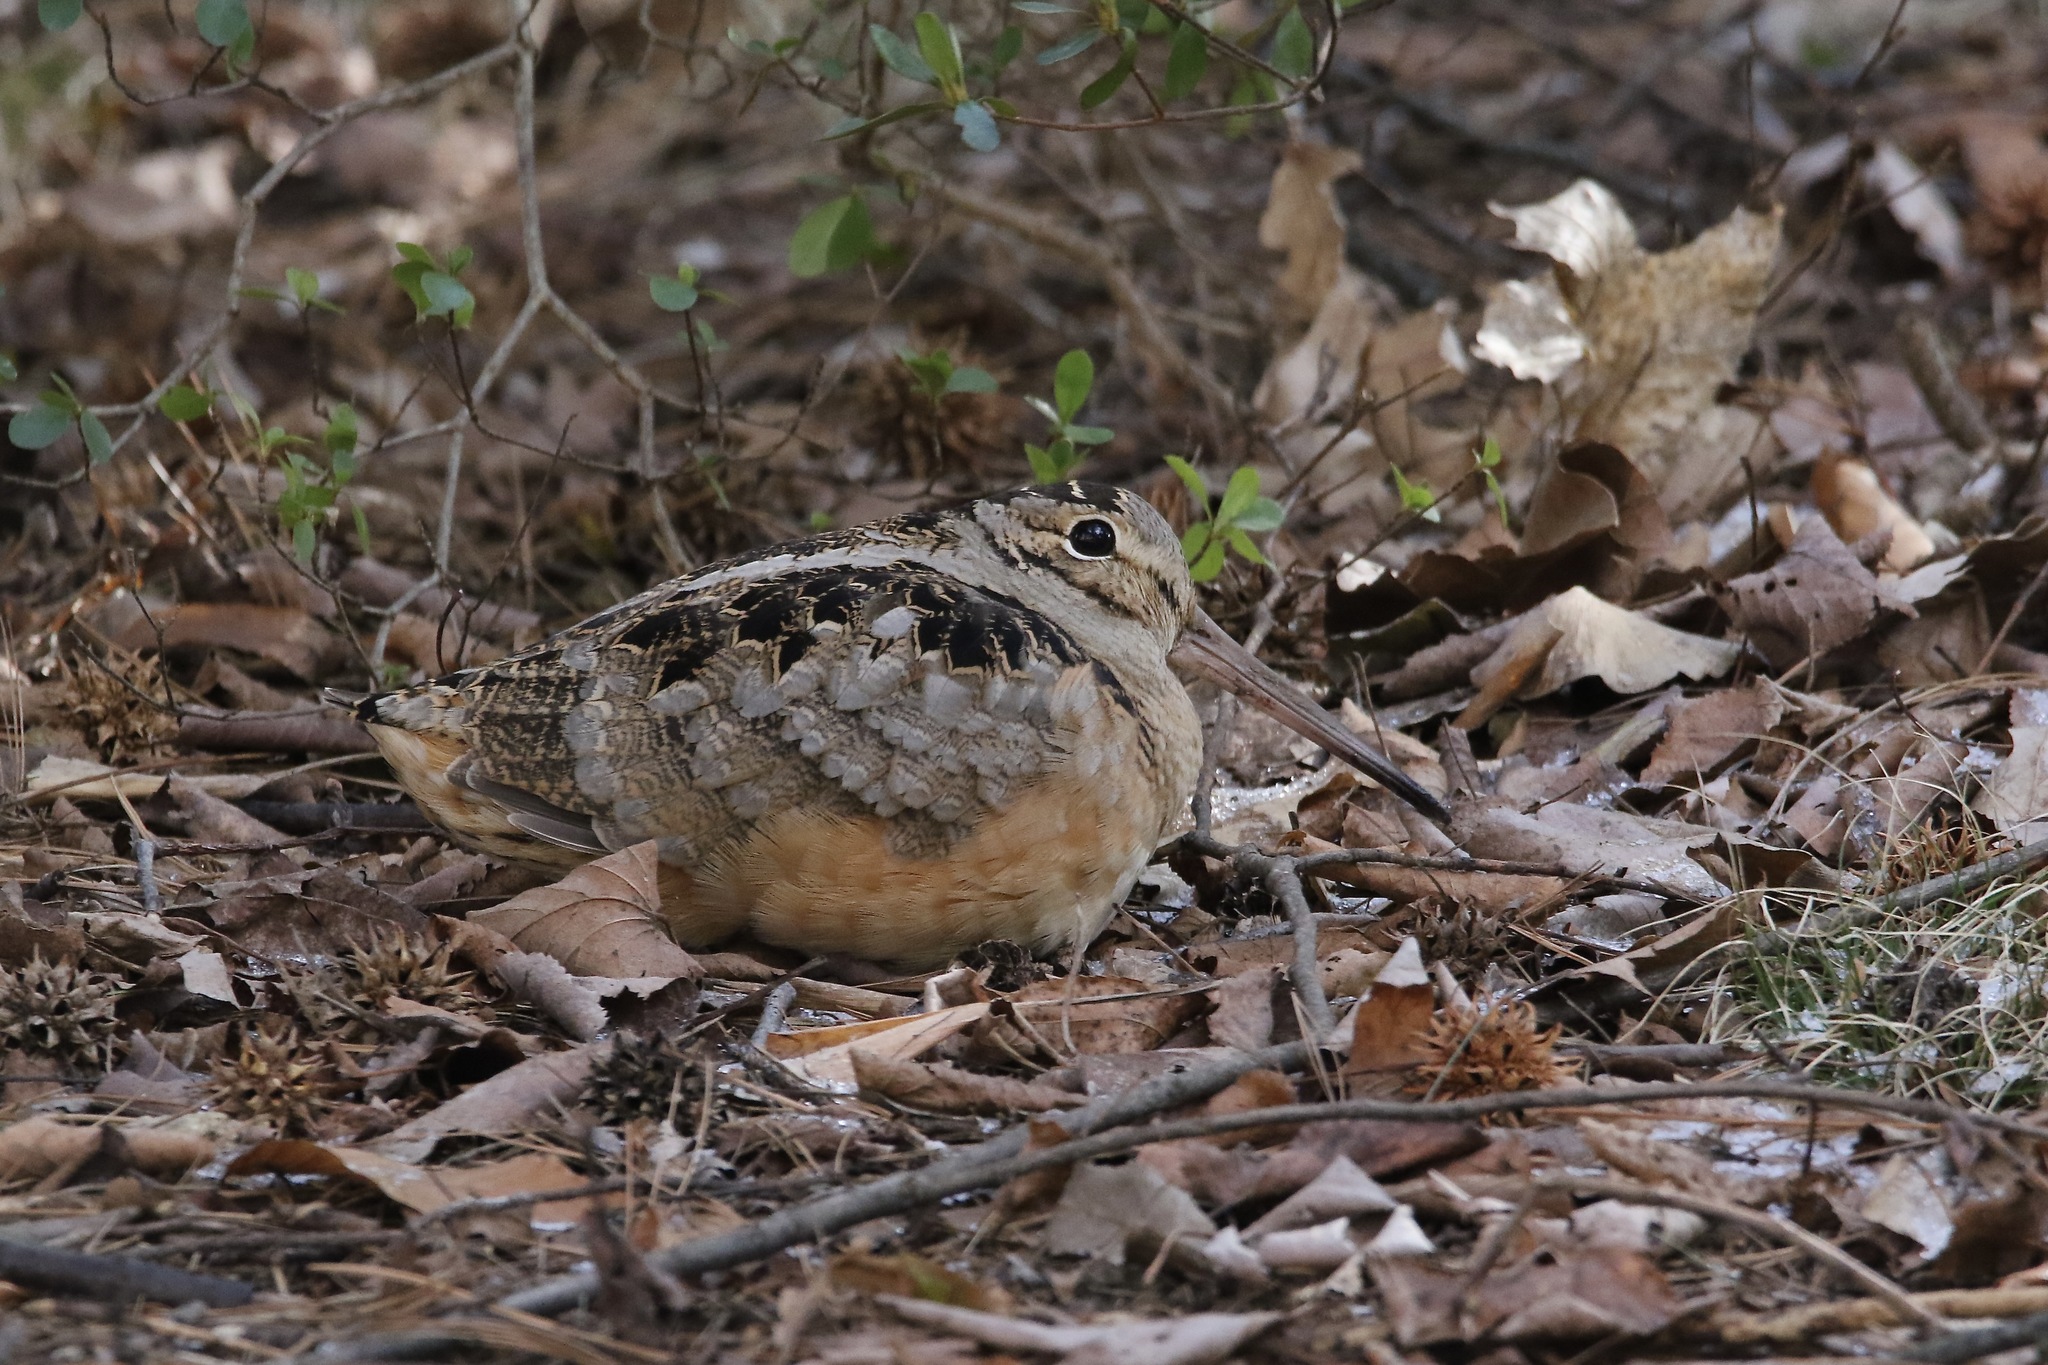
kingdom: Animalia
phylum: Chordata
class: Aves
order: Charadriiformes
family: Scolopacidae
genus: Scolopax
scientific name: Scolopax minor
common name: American woodcock
